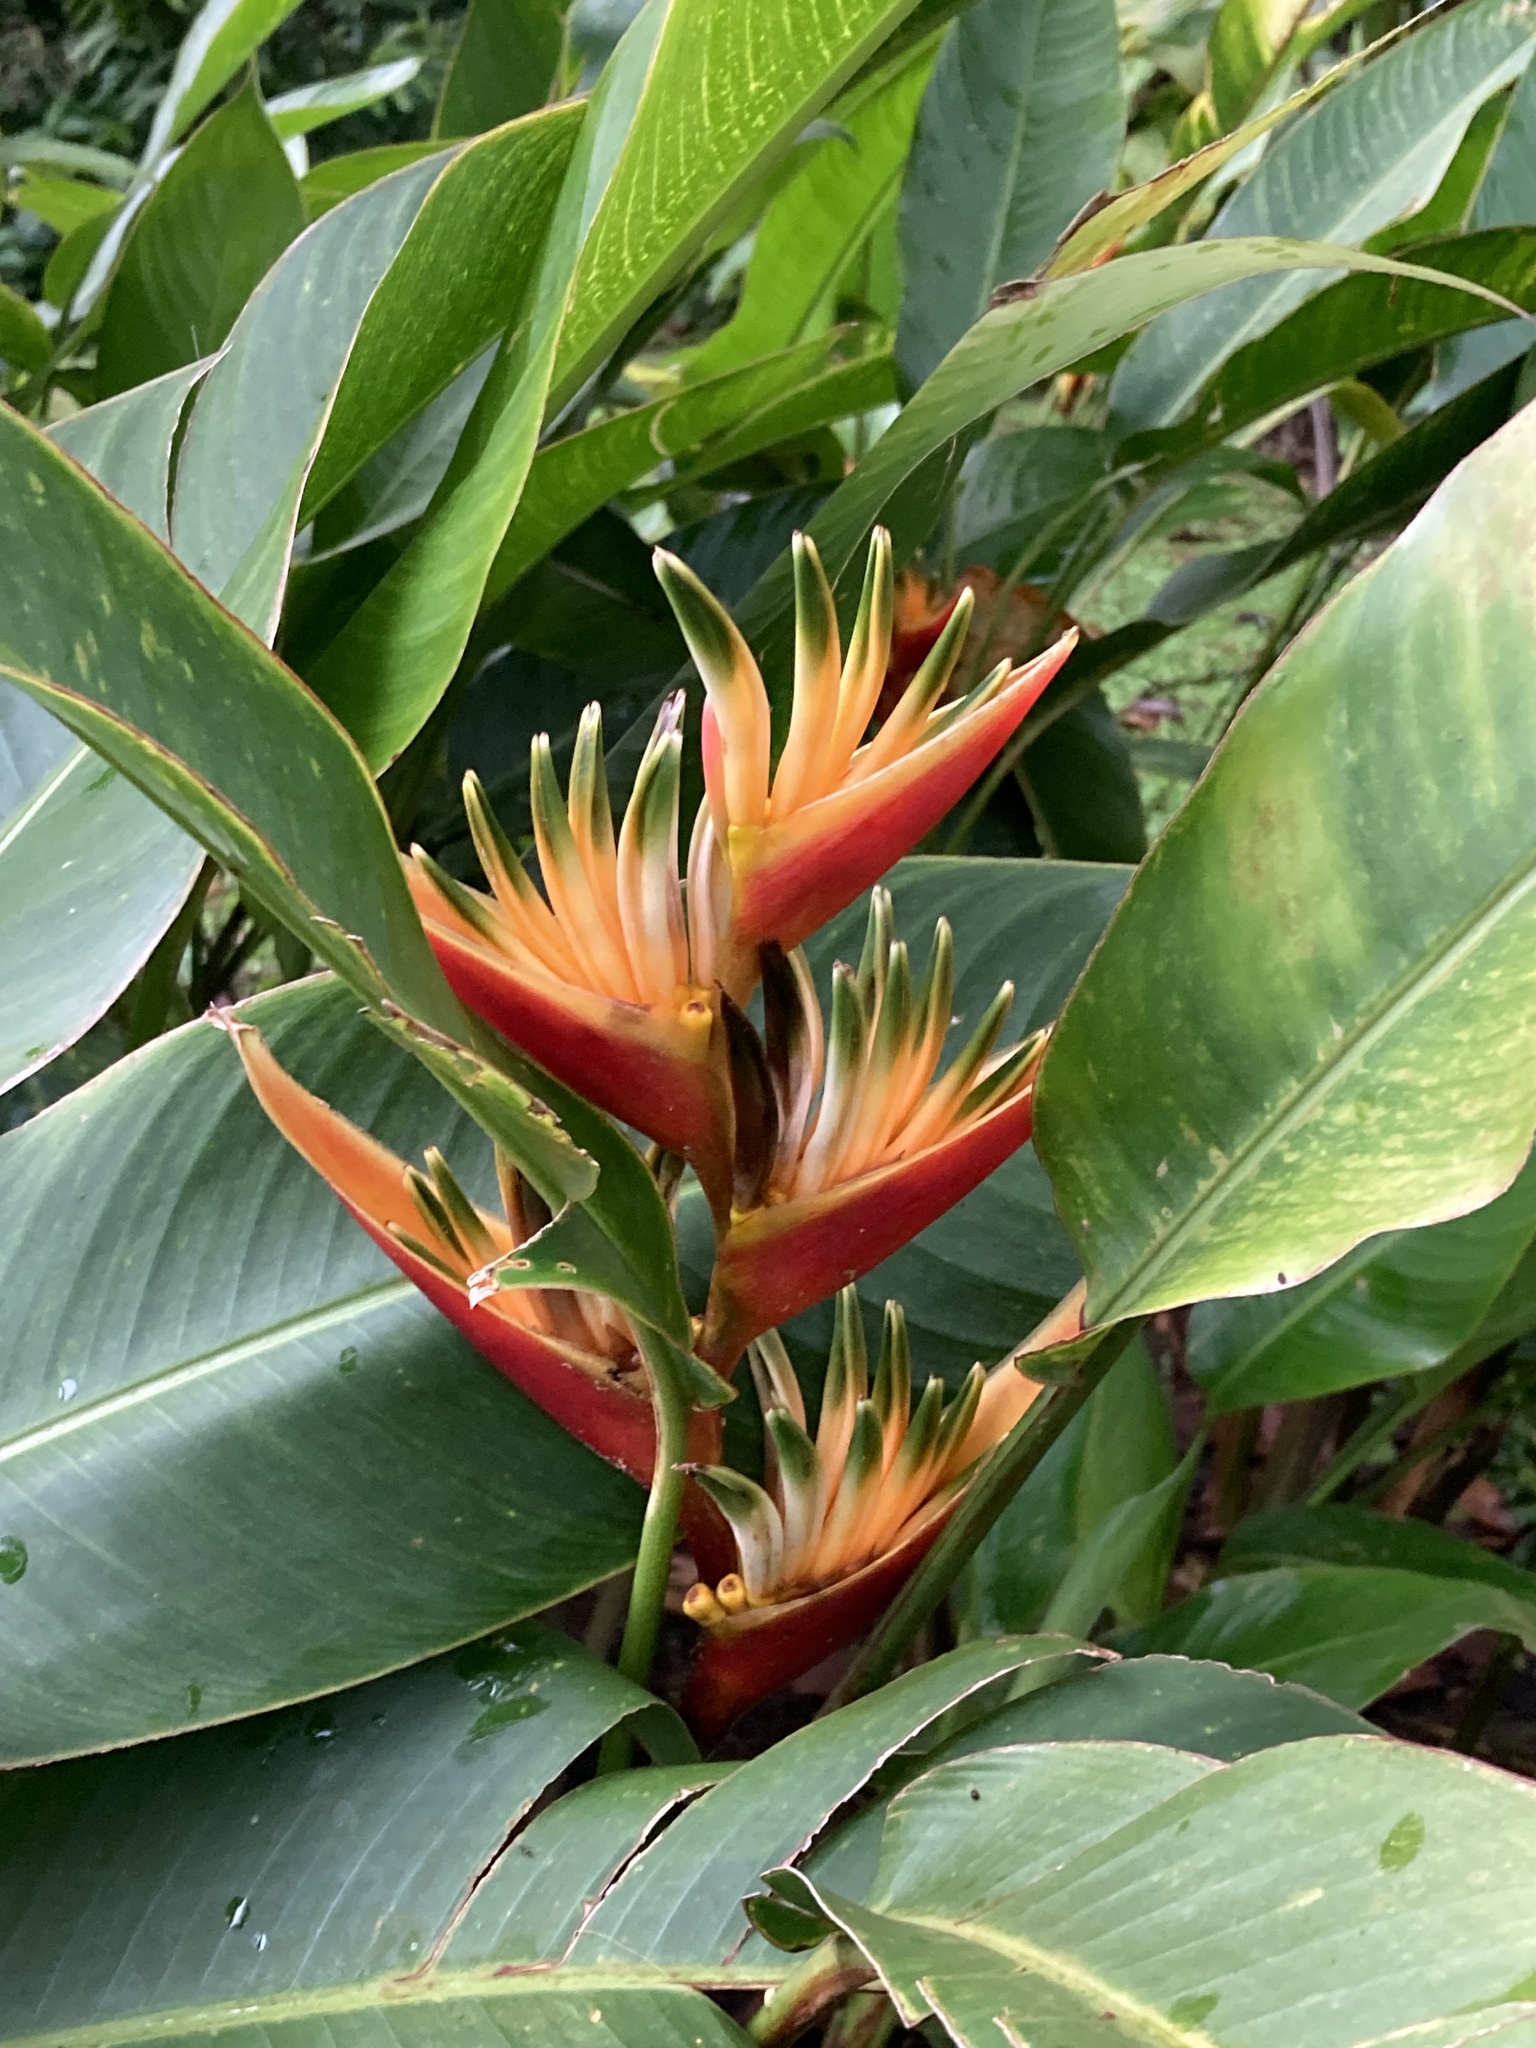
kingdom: Plantae
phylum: Tracheophyta
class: Liliopsida
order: Zingiberales
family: Heliconiaceae
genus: Heliconia
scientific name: Heliconia
